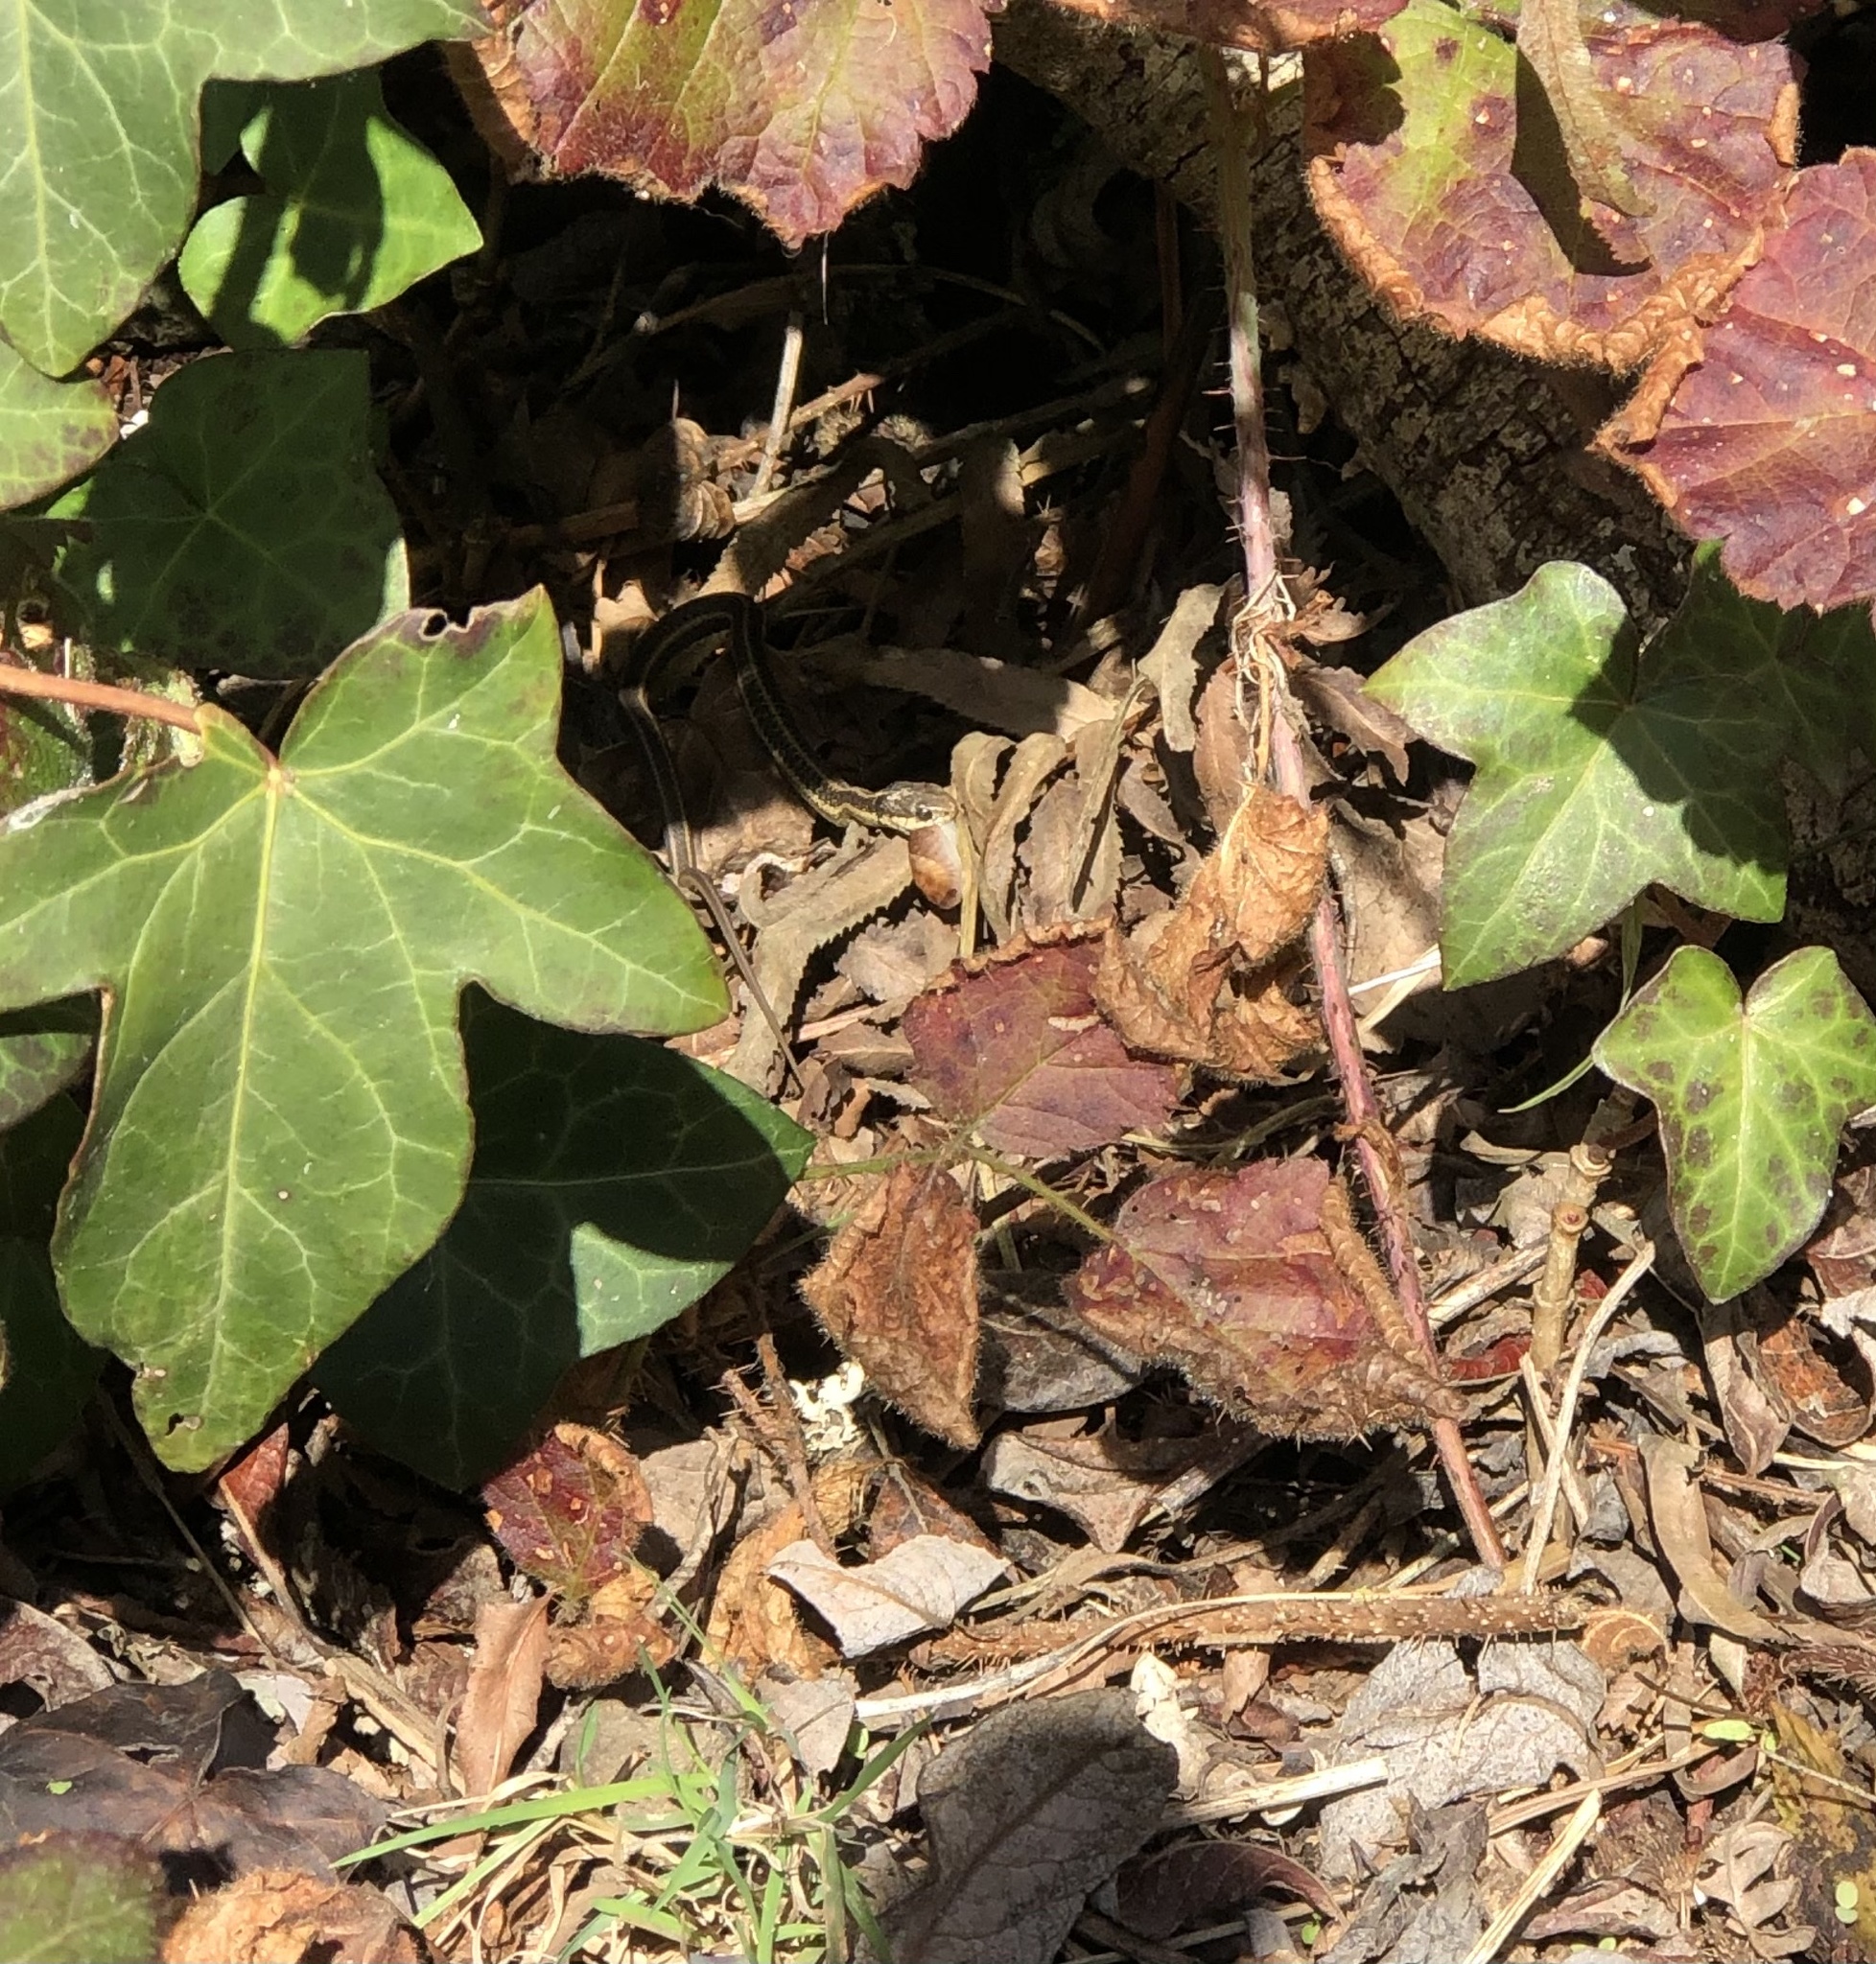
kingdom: Animalia
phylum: Chordata
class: Squamata
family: Colubridae
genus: Thamnophis
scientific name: Thamnophis elegans
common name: Western terrestrial garter snake
